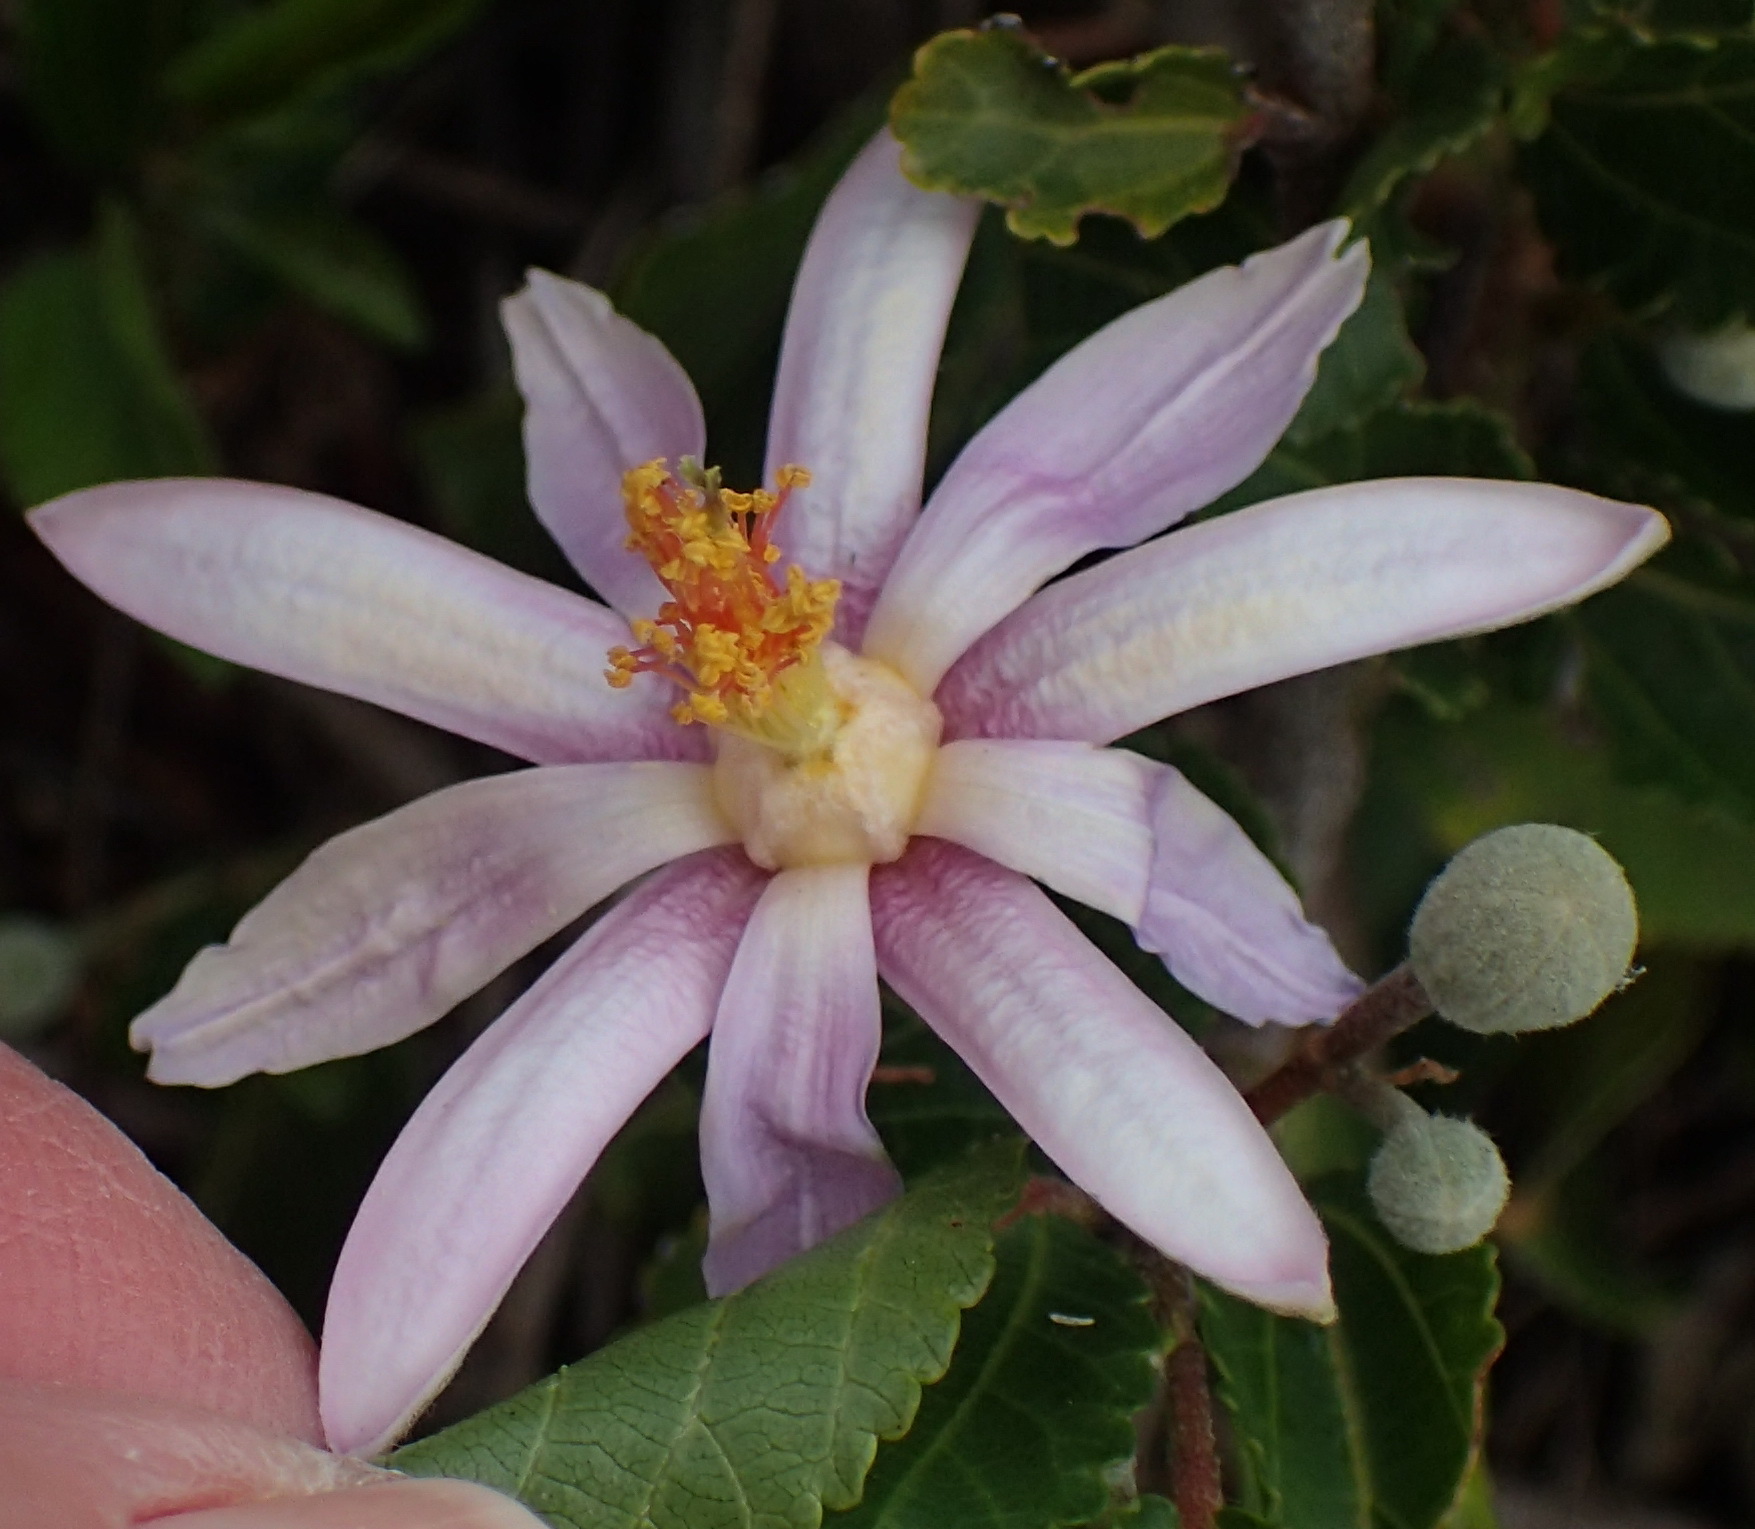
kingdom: Plantae
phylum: Tracheophyta
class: Magnoliopsida
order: Malvales
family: Malvaceae
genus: Grewia
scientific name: Grewia occidentalis
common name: Crossberry
